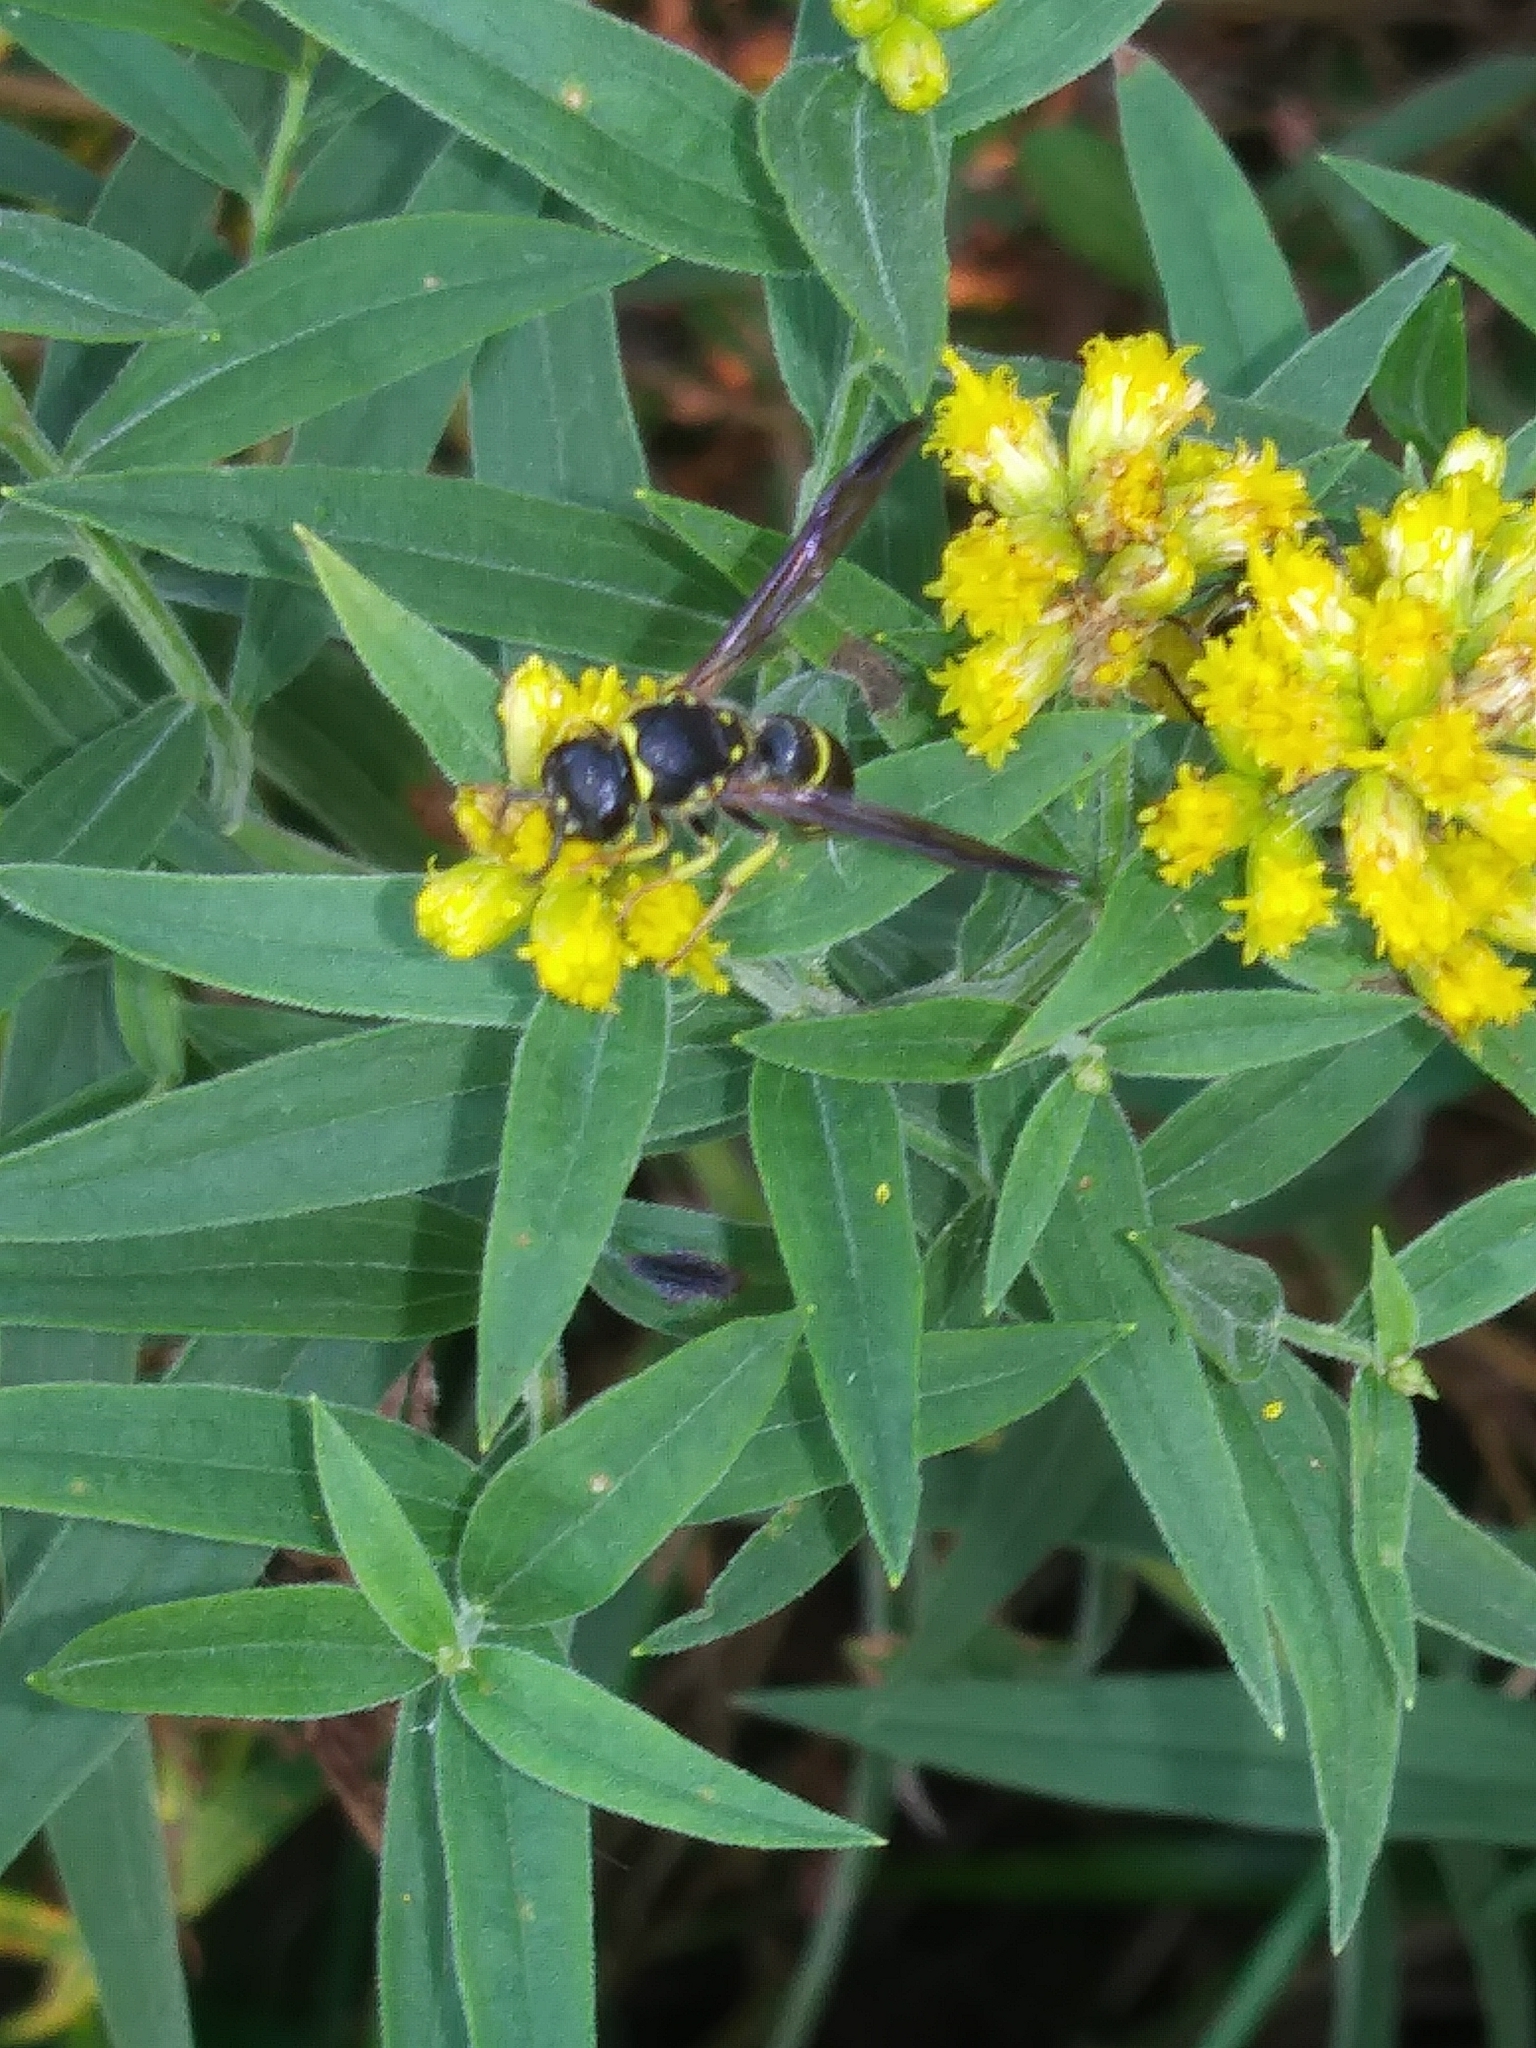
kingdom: Animalia
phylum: Arthropoda
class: Insecta
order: Hymenoptera
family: Vespidae
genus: Ancistrocerus
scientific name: Ancistrocerus adiabatus
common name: Bramble mason wasp
